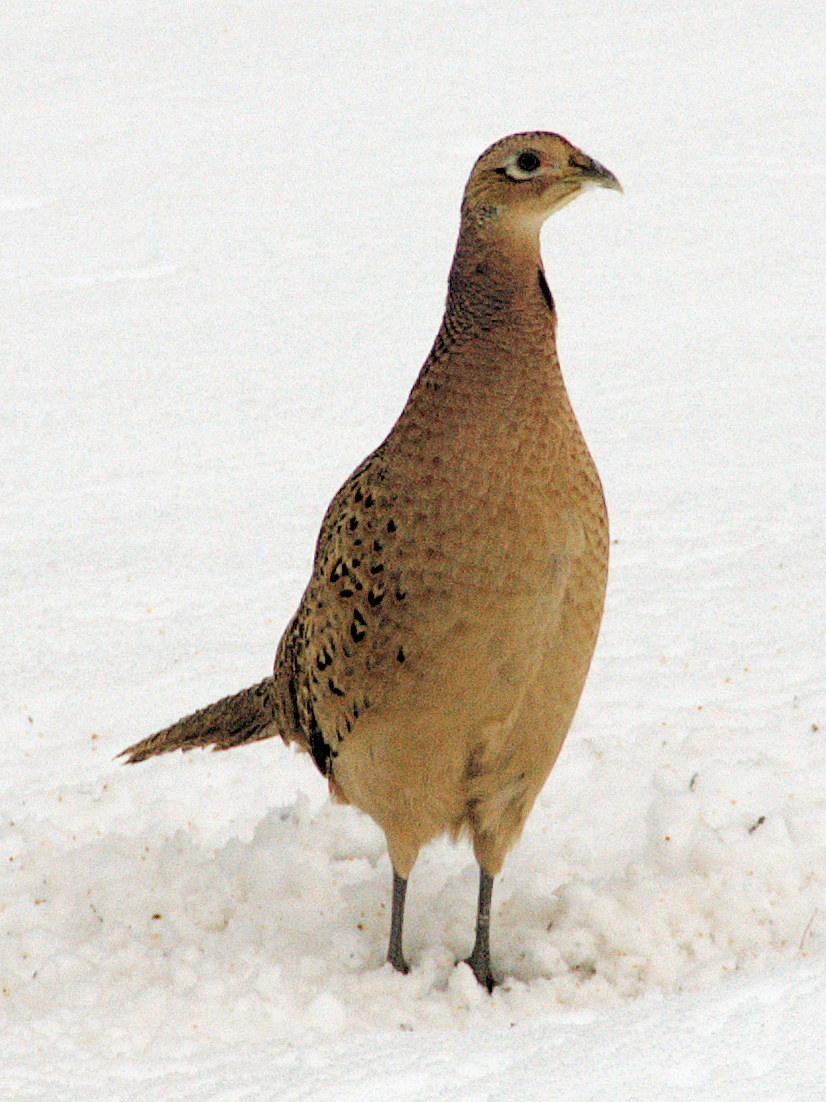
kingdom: Animalia
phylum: Chordata
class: Aves
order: Galliformes
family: Phasianidae
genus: Phasianus
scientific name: Phasianus colchicus
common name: Common pheasant
